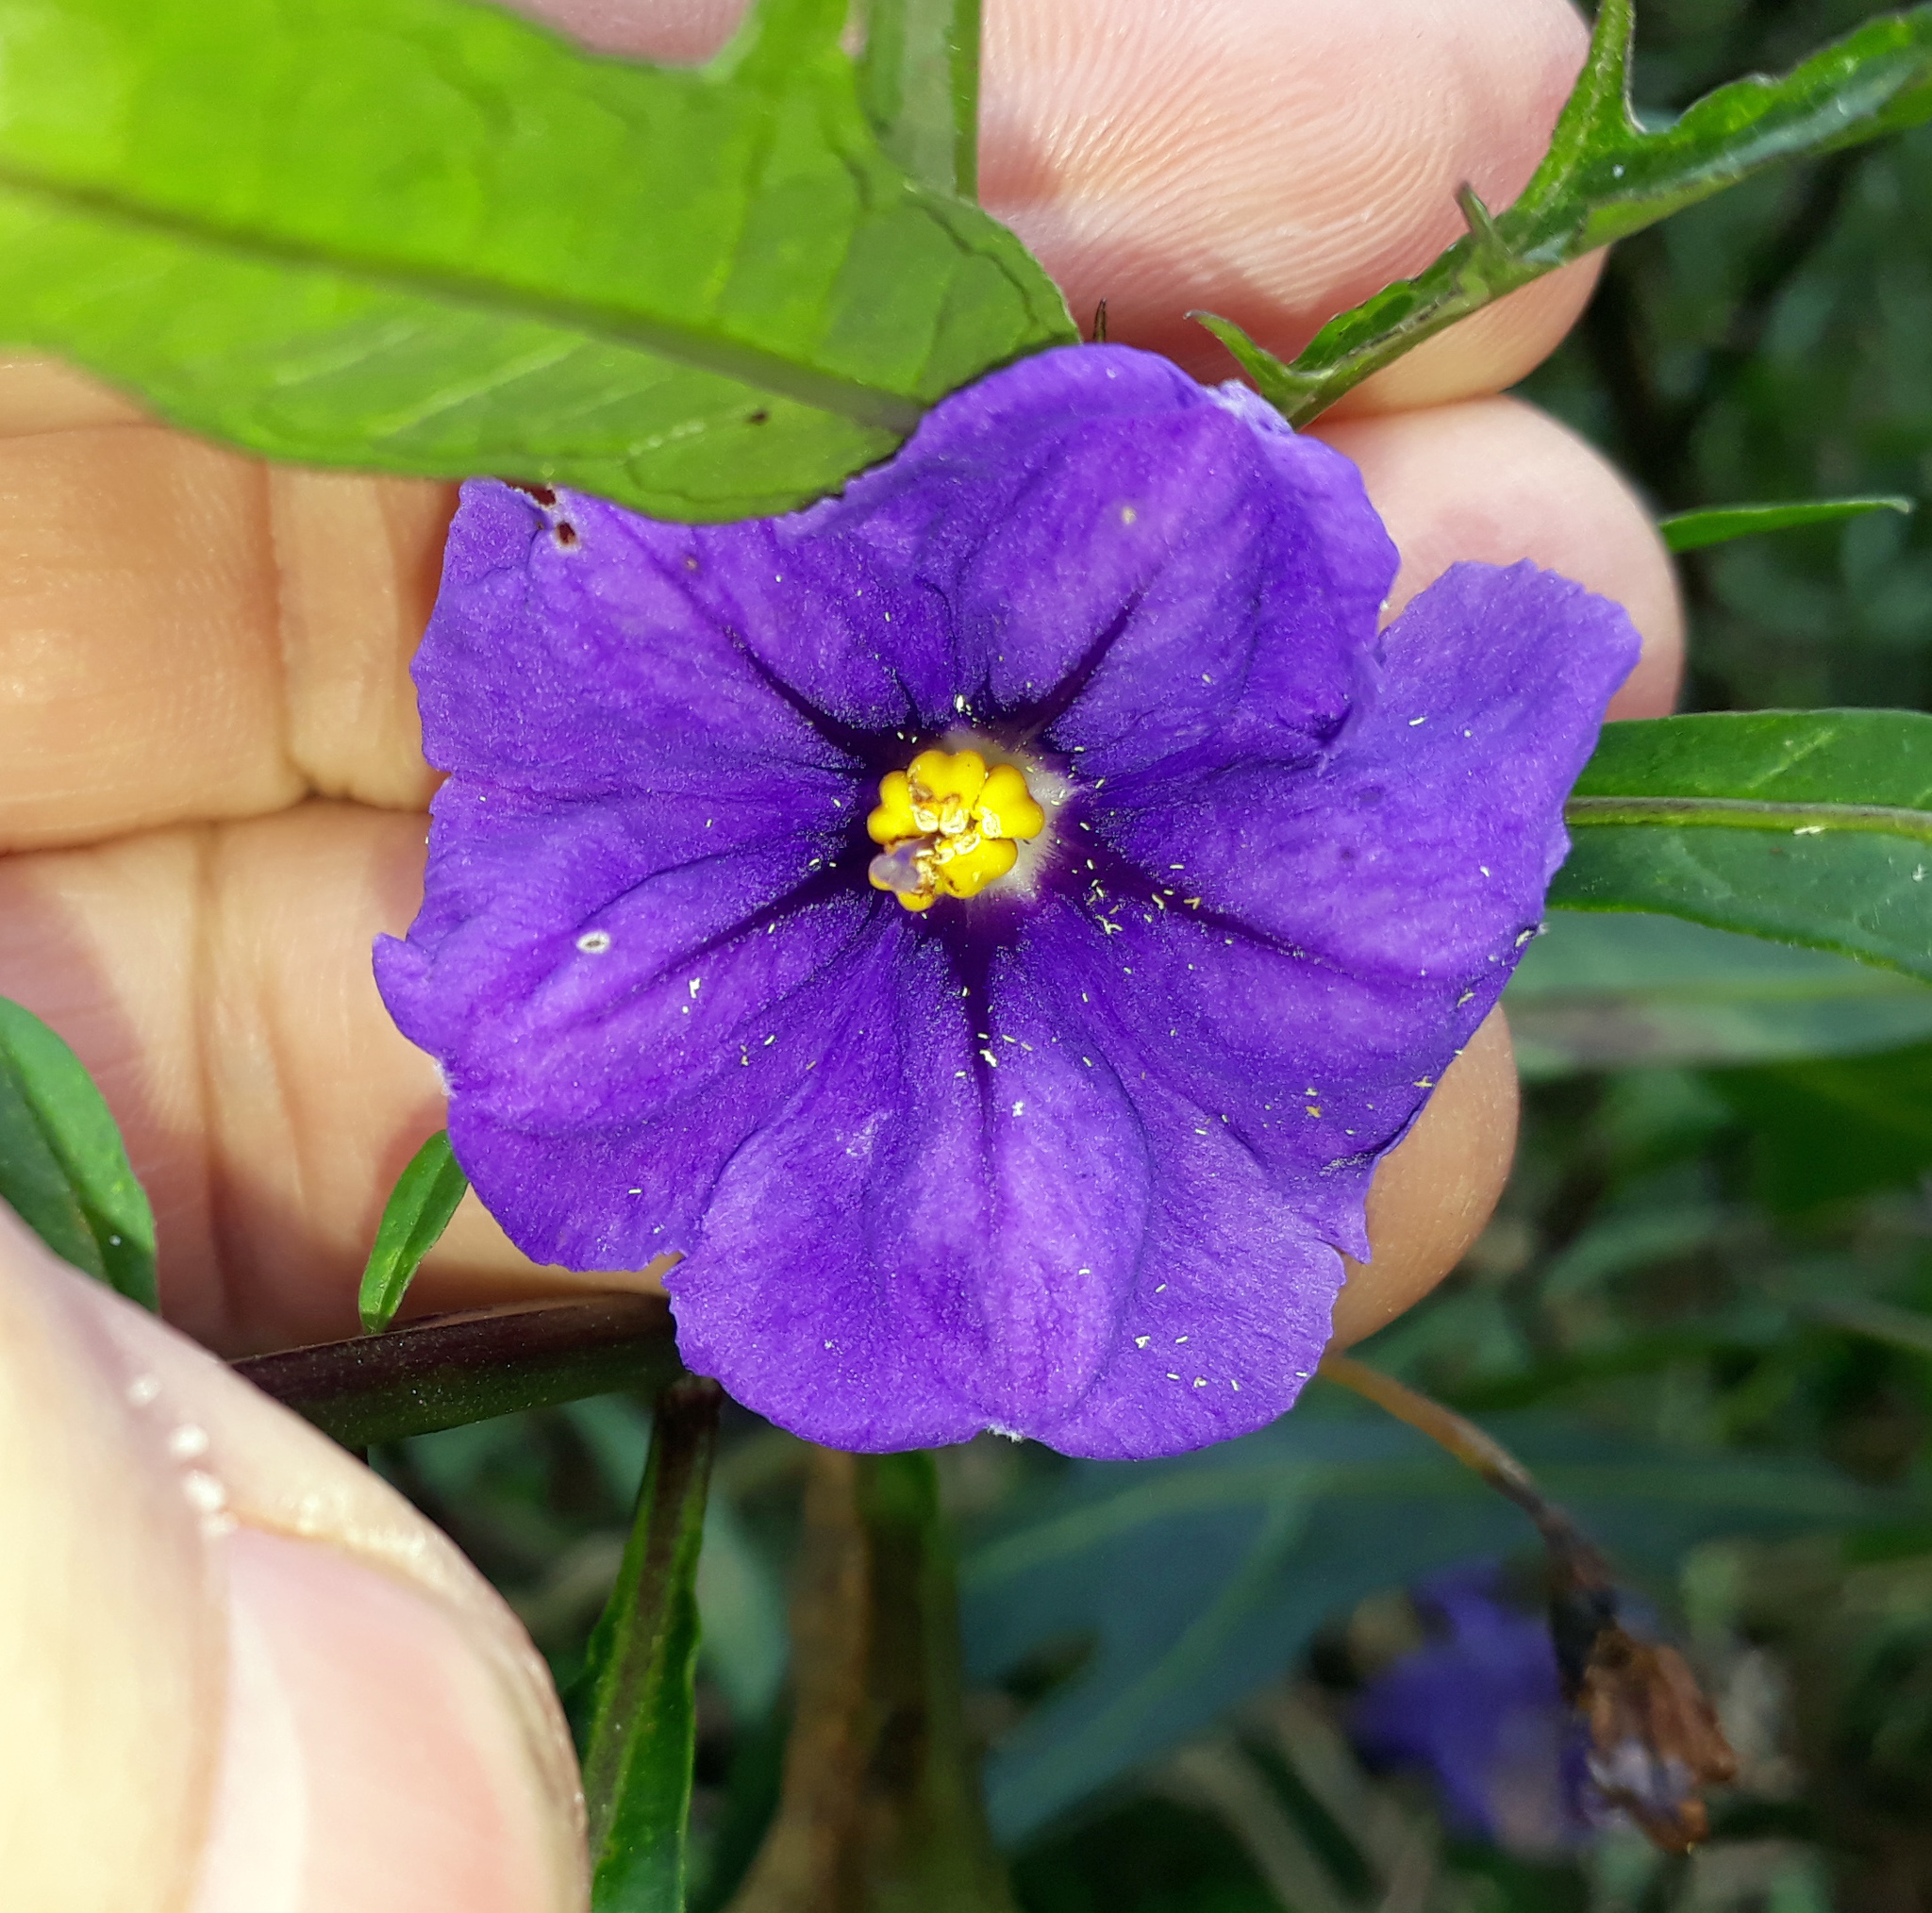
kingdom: Plantae
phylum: Tracheophyta
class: Magnoliopsida
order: Solanales
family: Solanaceae
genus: Solanum
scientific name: Solanum laciniatum
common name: Kangaroo-apple
